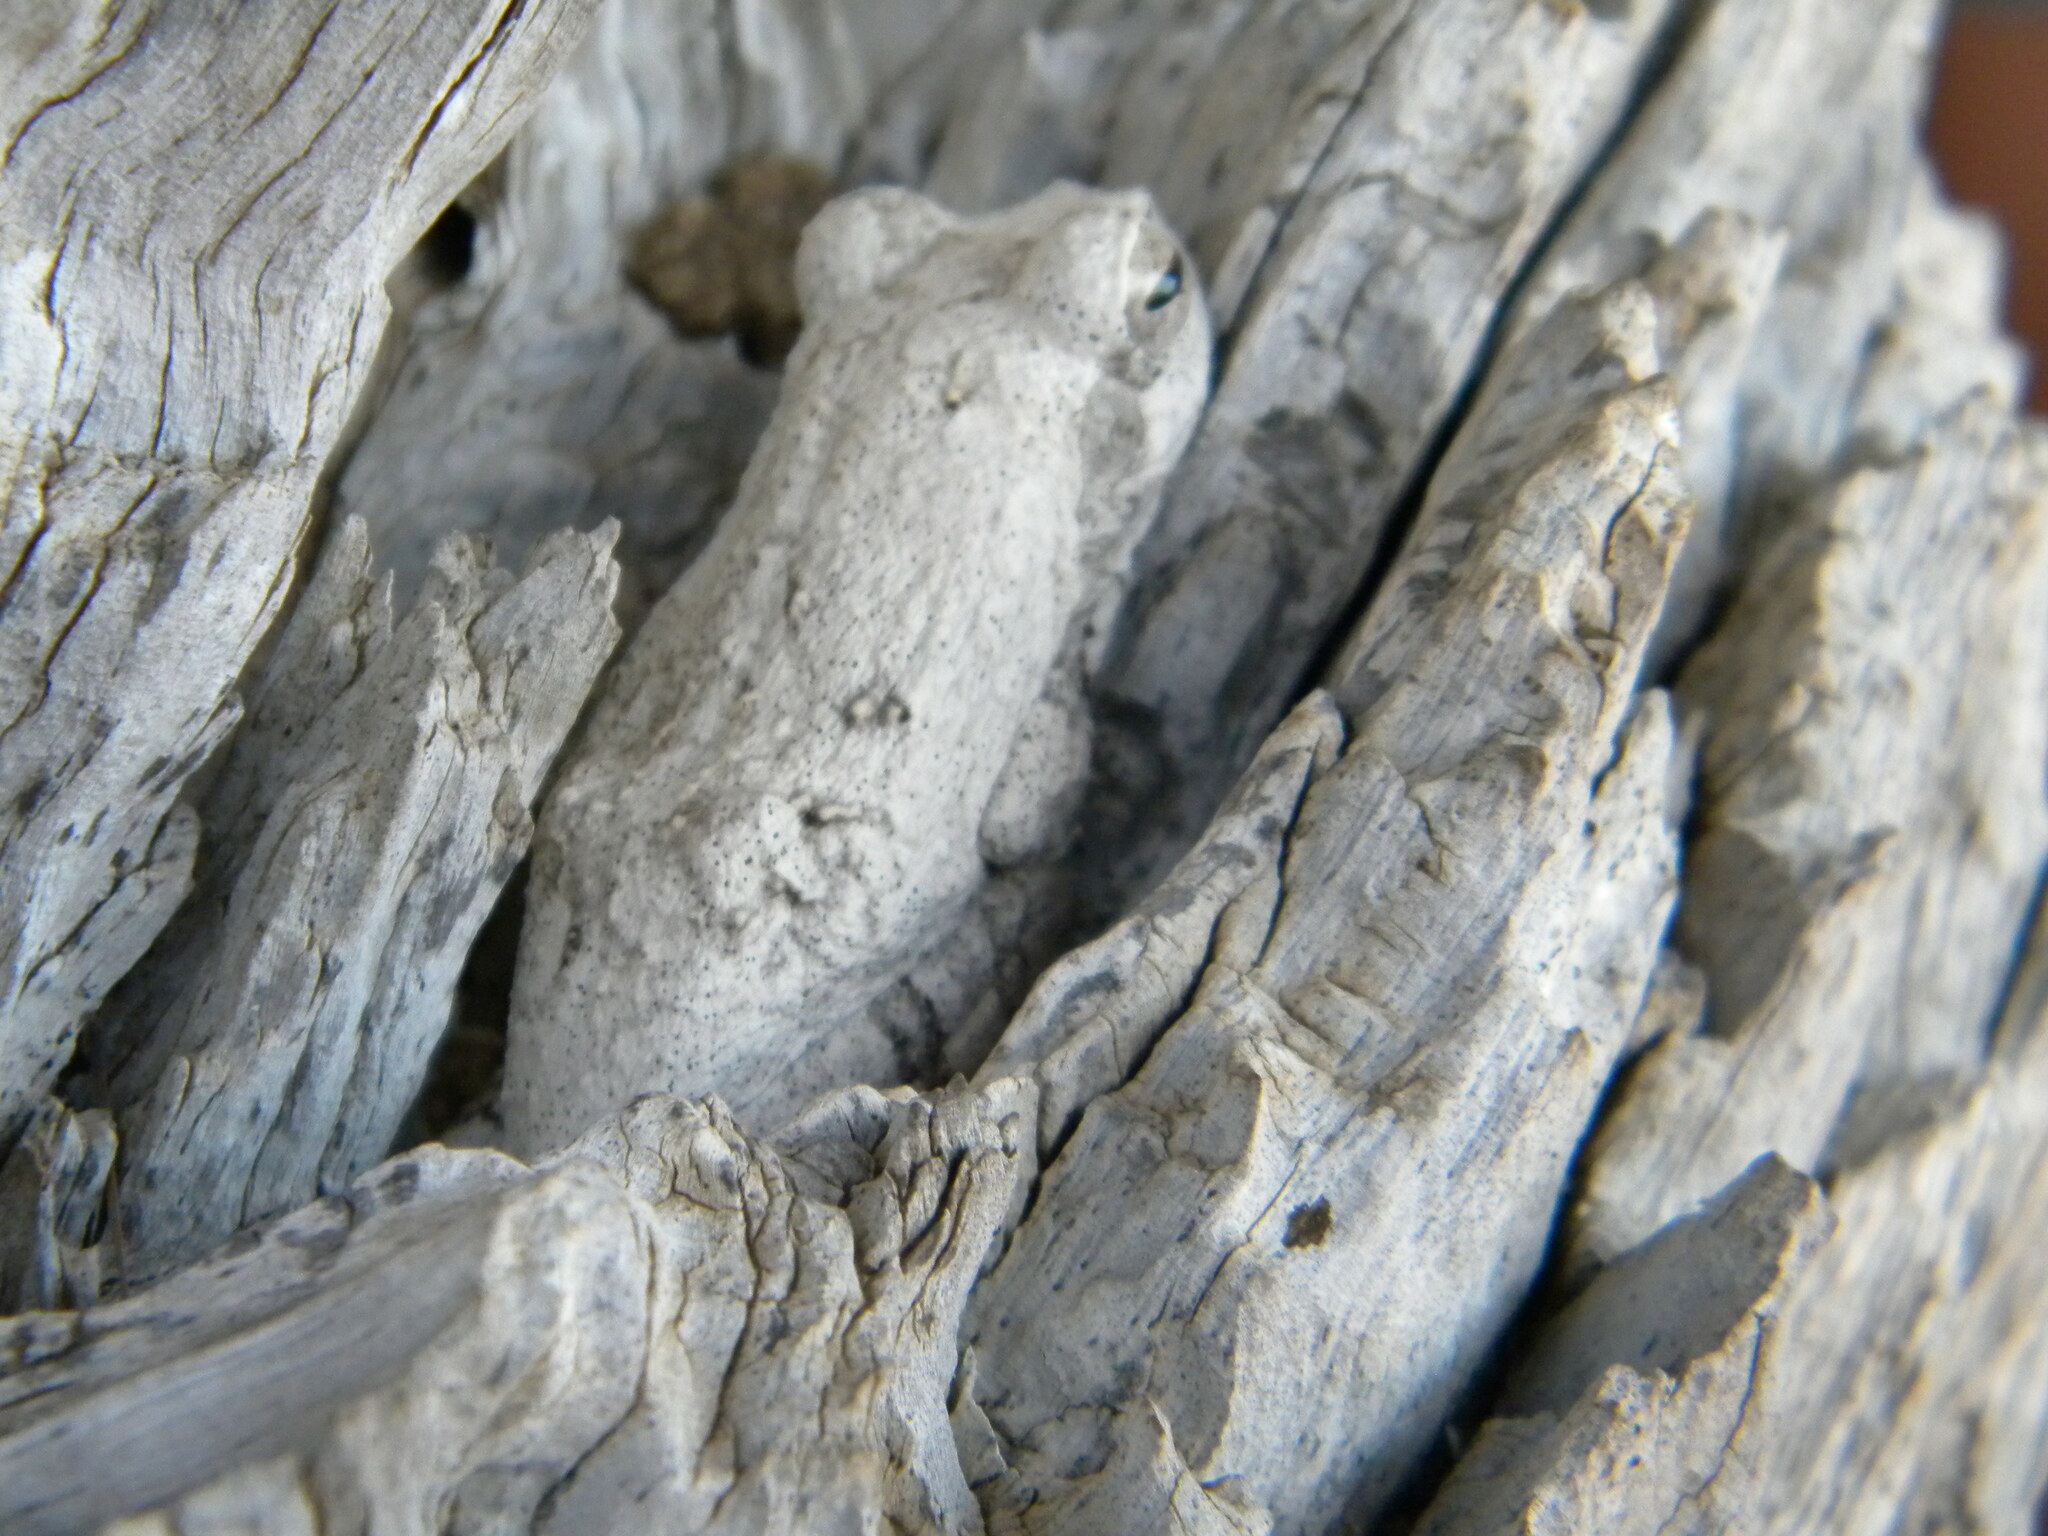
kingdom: Animalia
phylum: Chordata
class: Amphibia
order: Anura
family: Rhacophoridae
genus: Chiromantis
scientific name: Chiromantis xerampelina
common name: African gray treefrog
